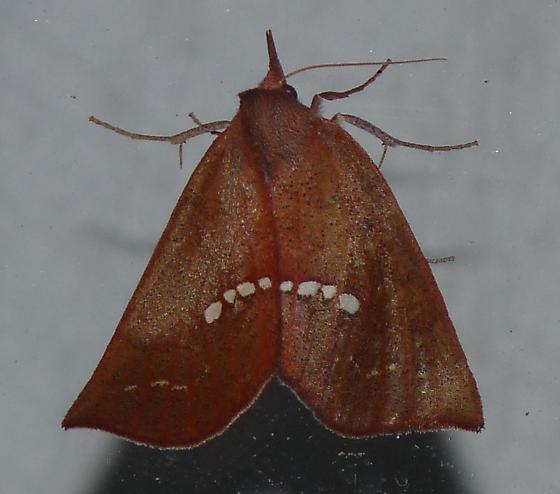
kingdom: Animalia
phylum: Arthropoda
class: Insecta
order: Lepidoptera
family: Erebidae
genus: Hypsoropha
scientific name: Hypsoropha monilis
